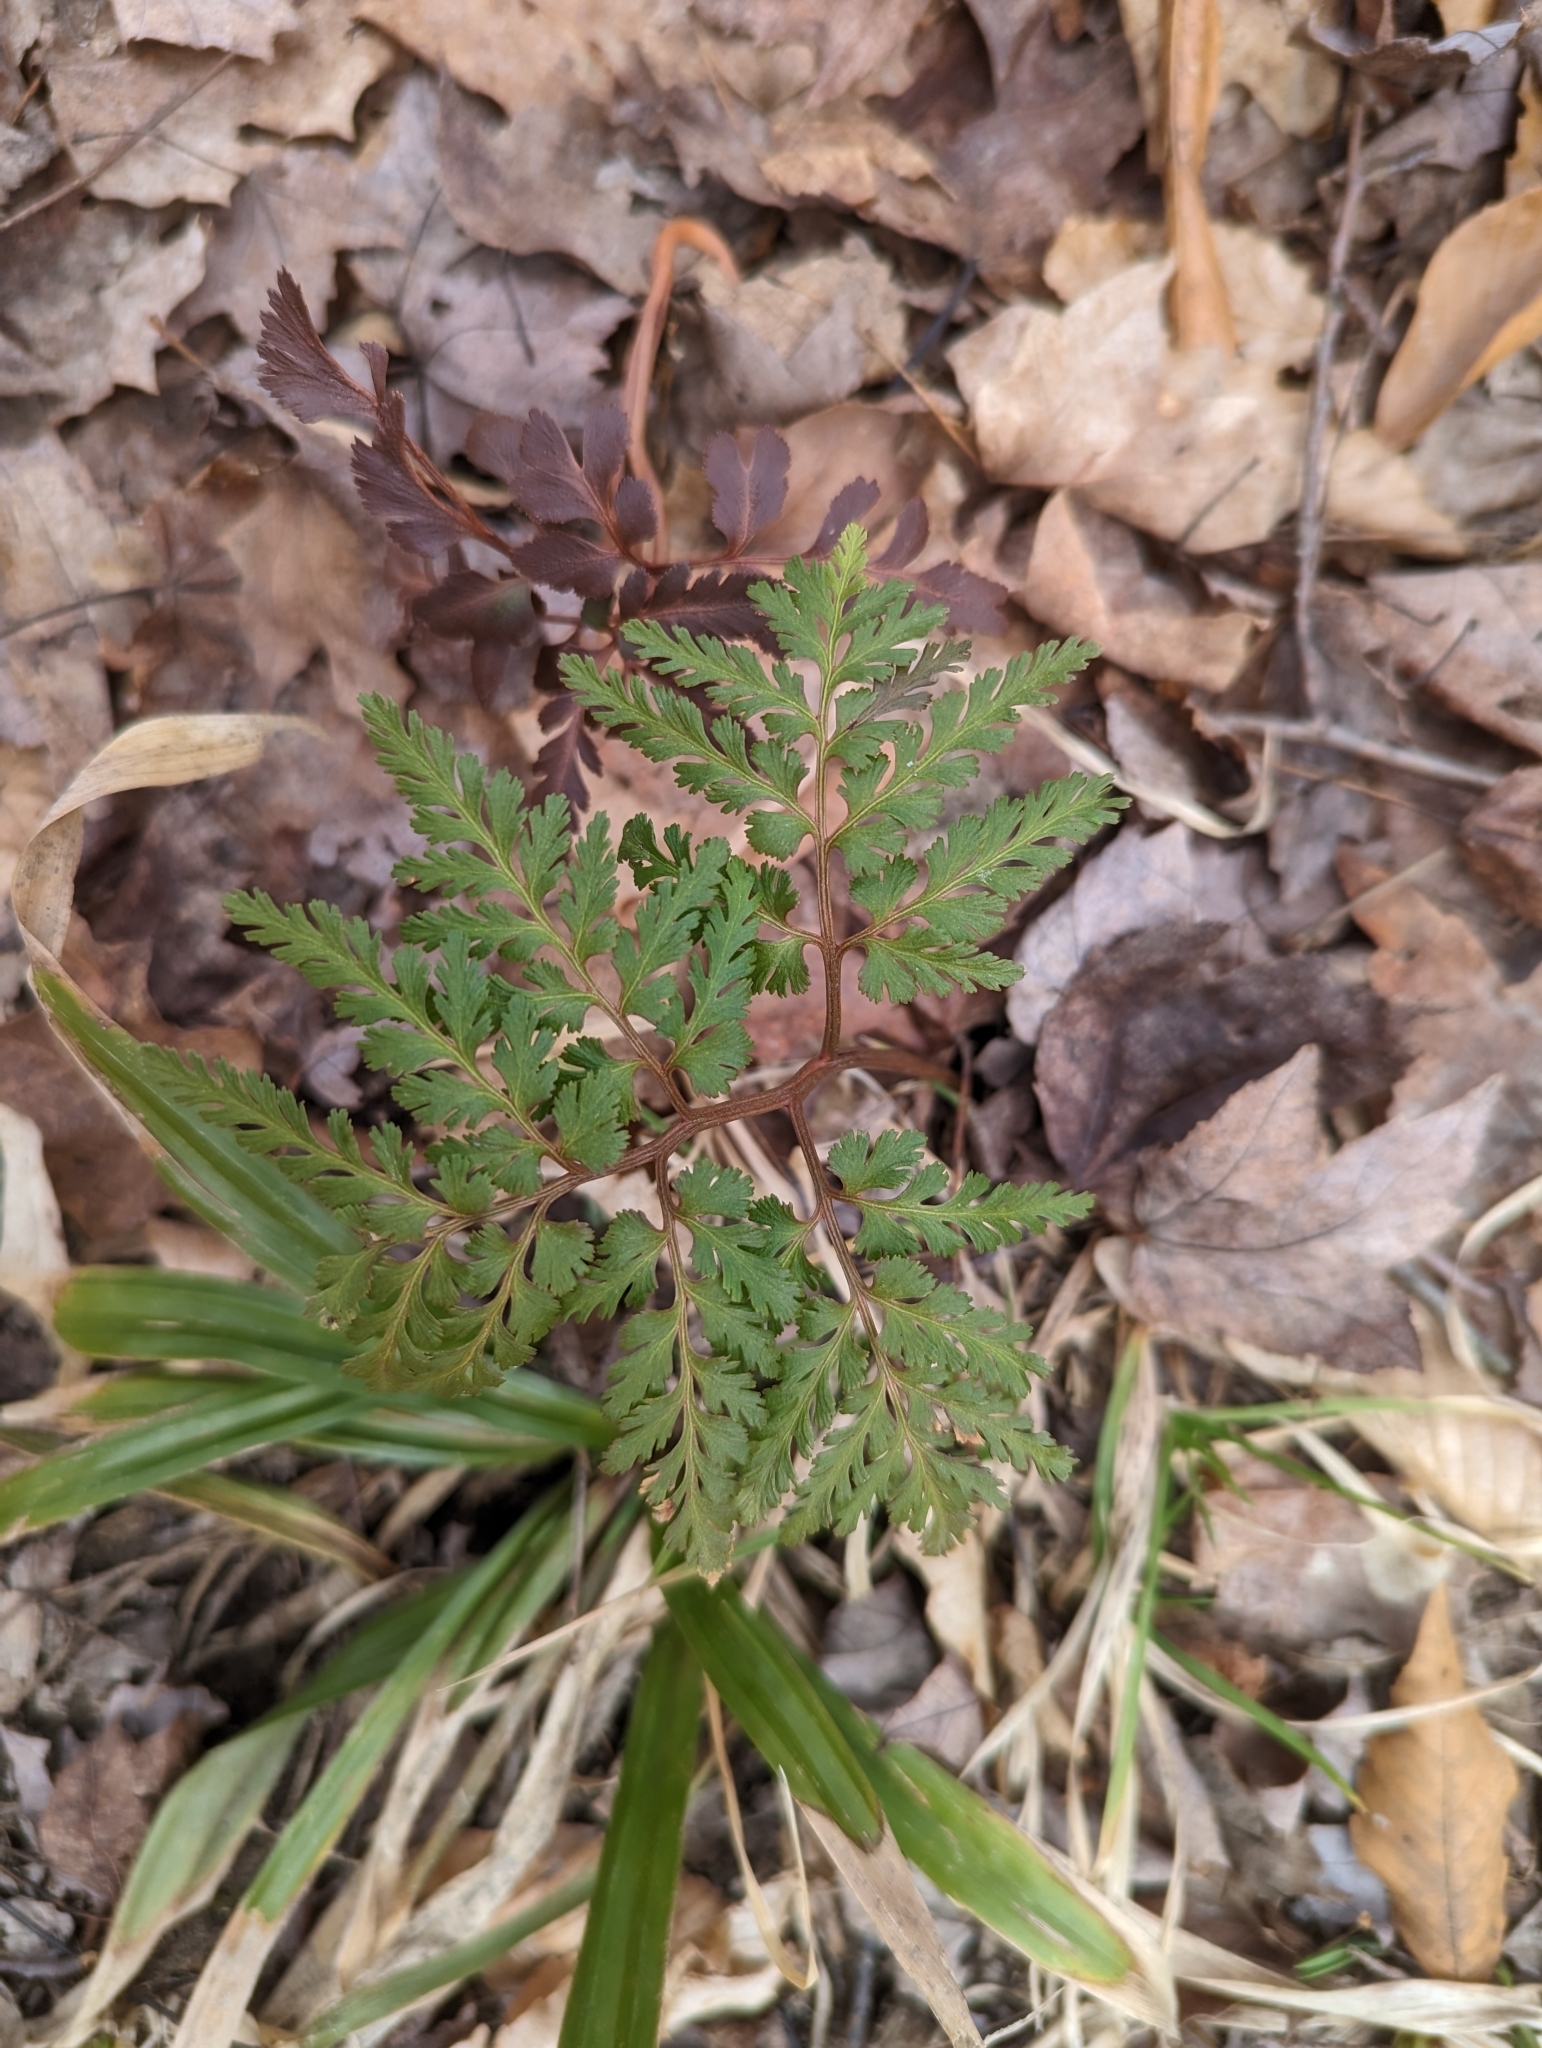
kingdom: Plantae
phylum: Tracheophyta
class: Polypodiopsida
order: Ophioglossales
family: Ophioglossaceae
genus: Sceptridium
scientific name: Sceptridium dissectum
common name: Cut-leaved grapefern
